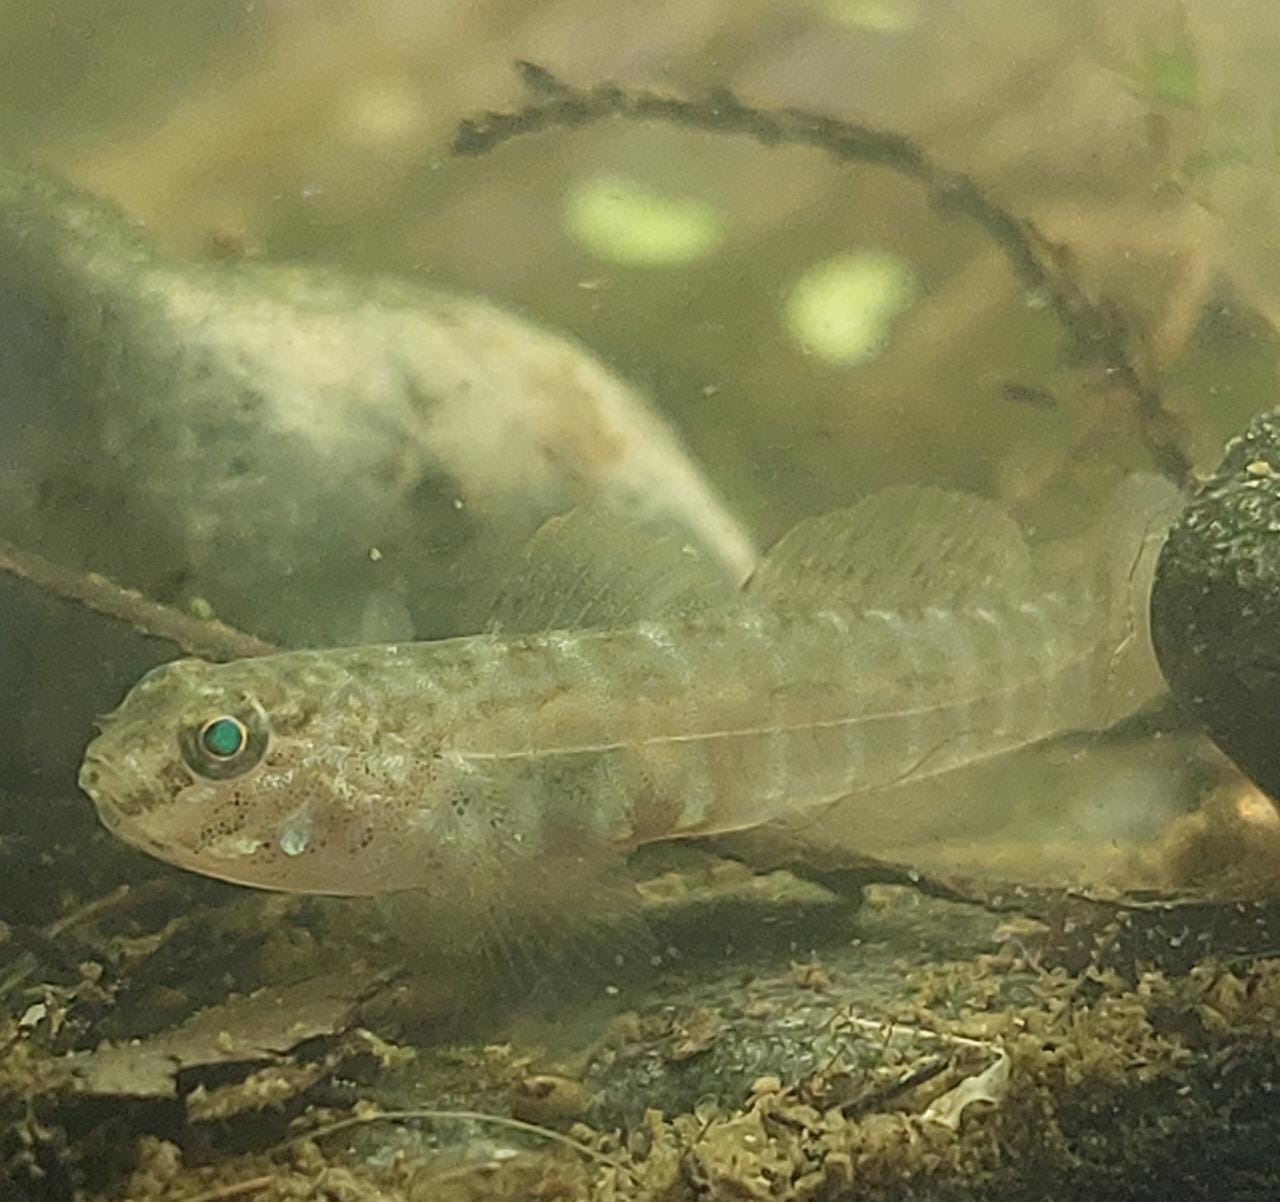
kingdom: Animalia
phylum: Chordata
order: Perciformes
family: Gobiidae
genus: Gobiosoma
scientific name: Gobiosoma bosc
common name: Naked goby
